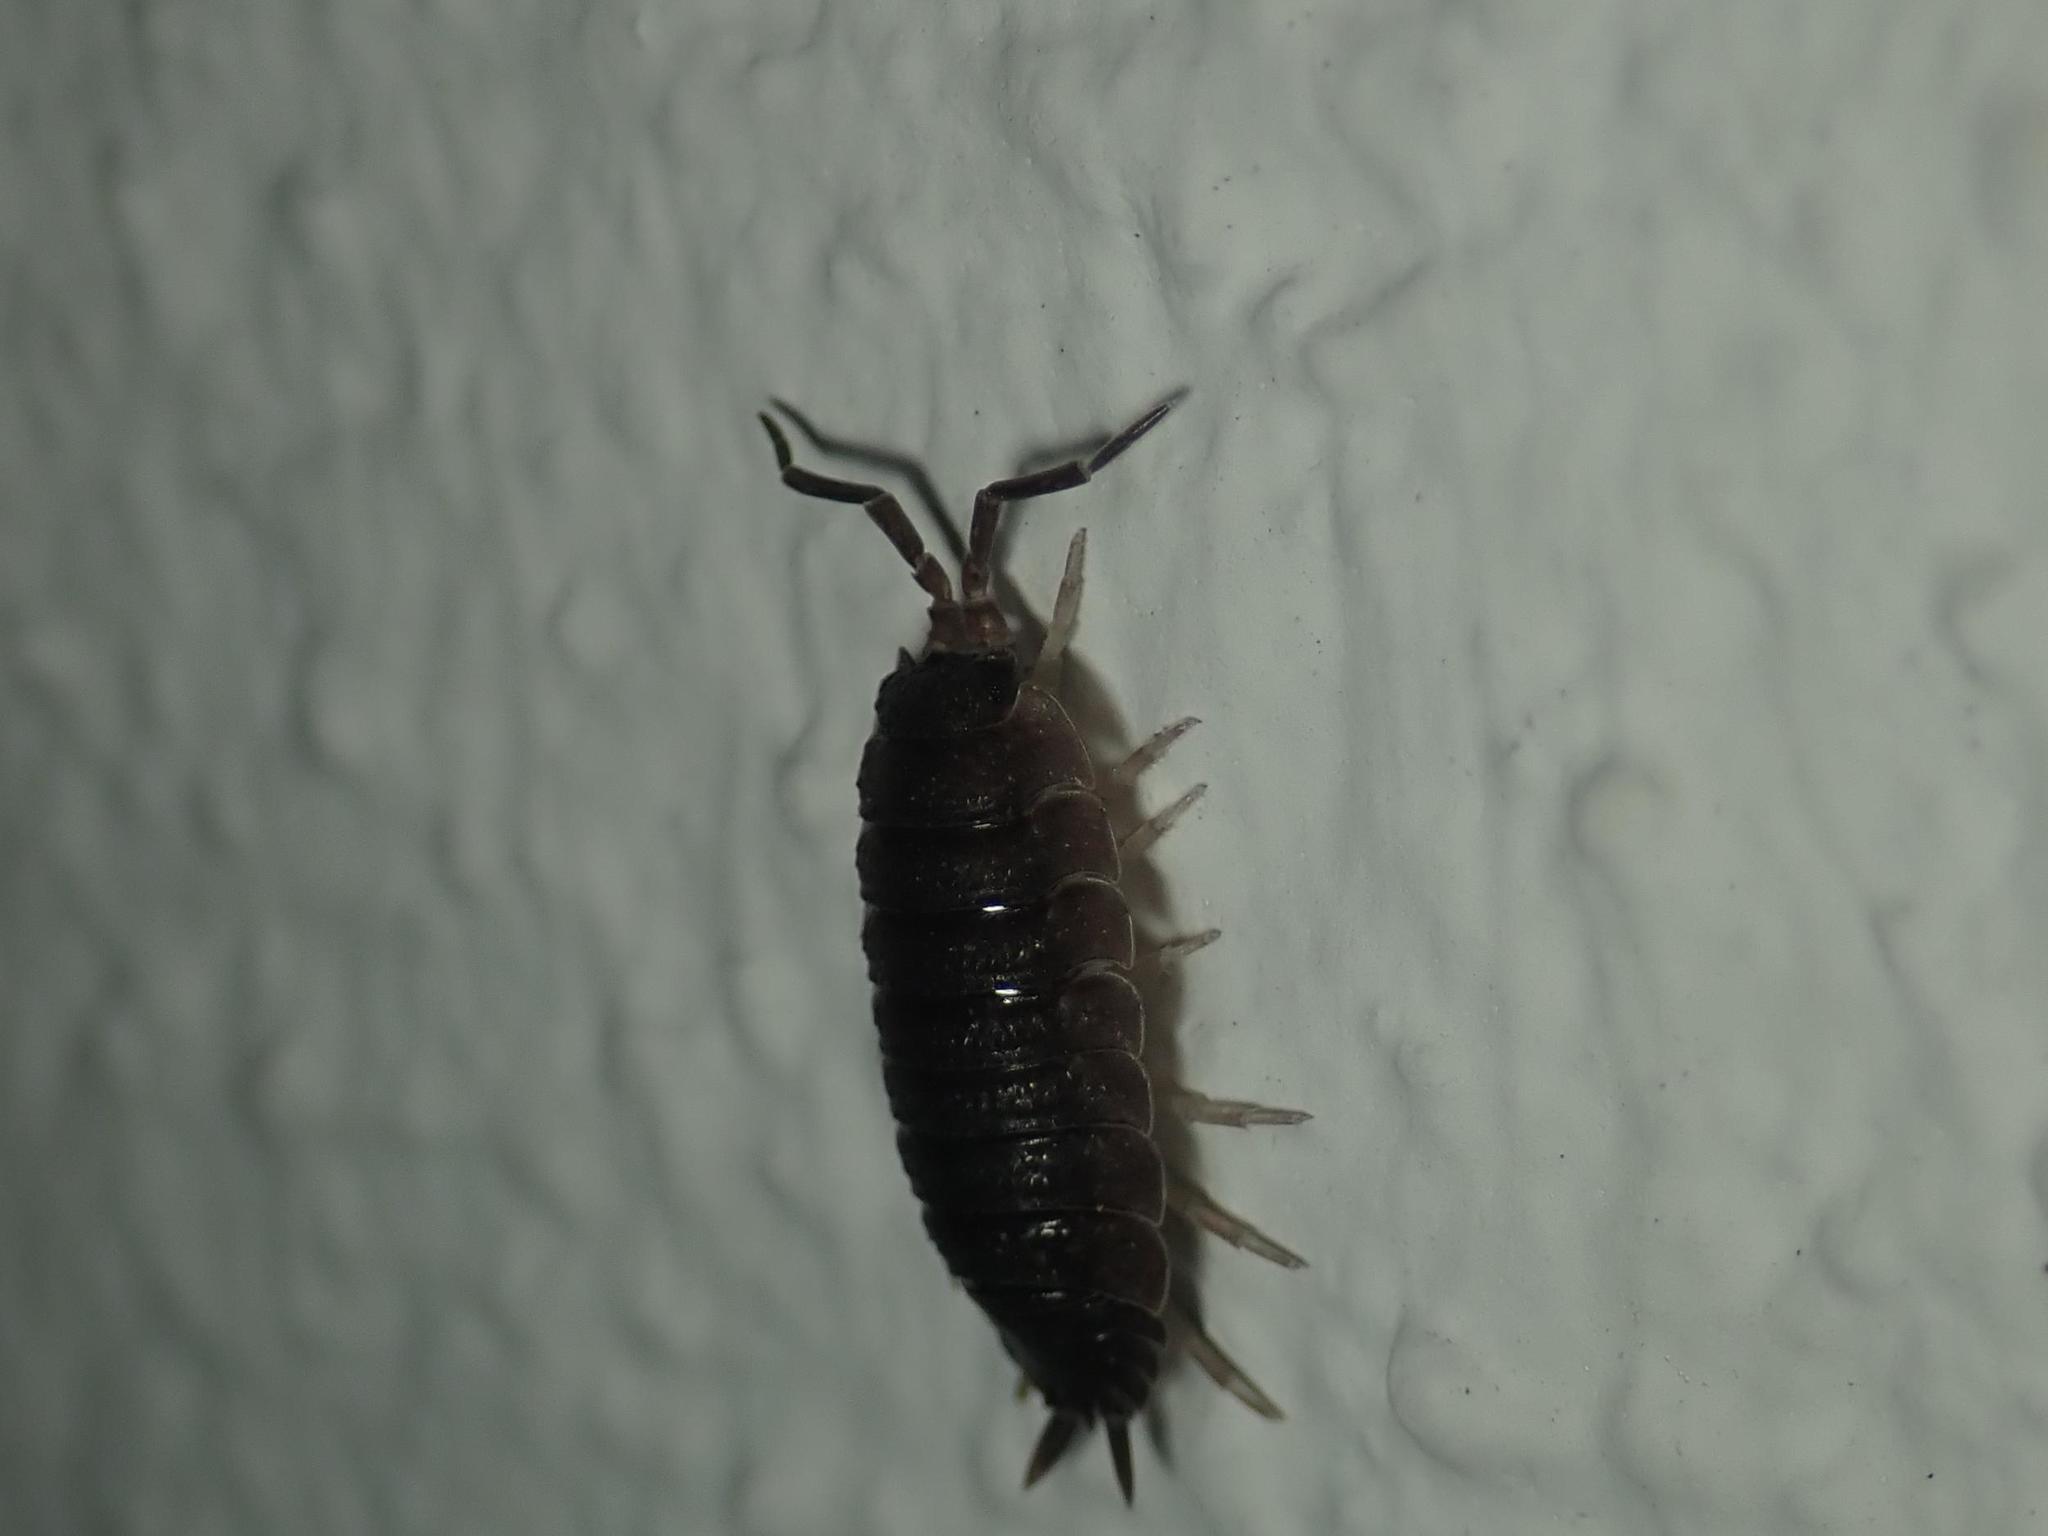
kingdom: Animalia
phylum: Arthropoda
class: Malacostraca
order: Isopoda
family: Porcellionidae
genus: Porcellio
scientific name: Porcellio scaber
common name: Common rough woodlouse
